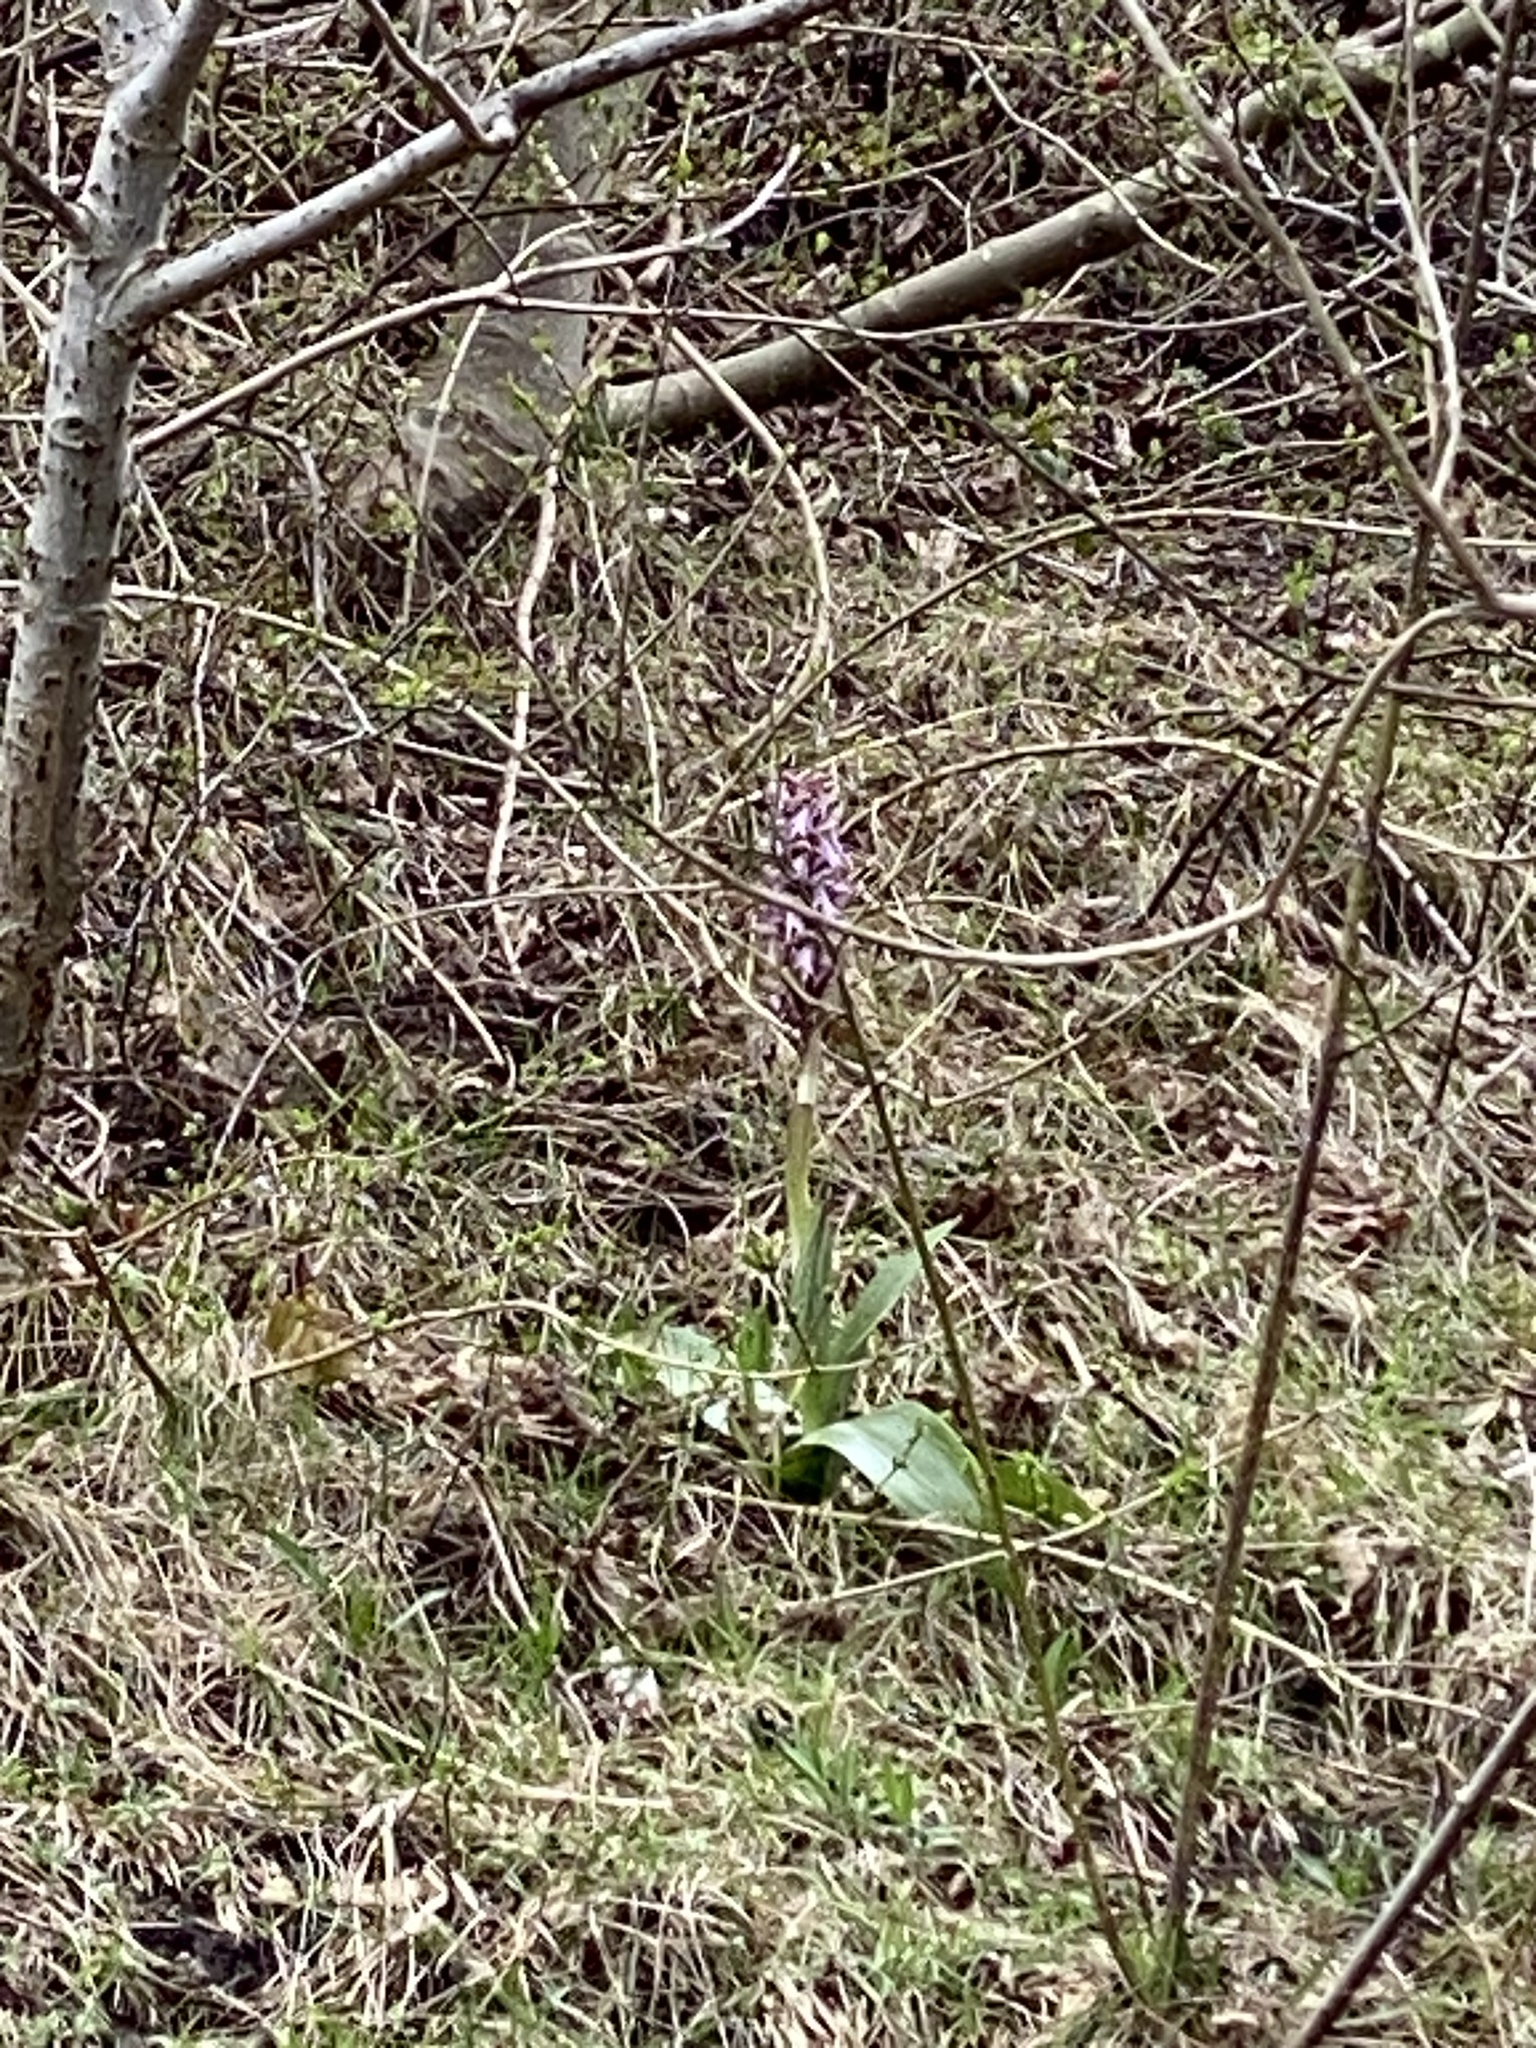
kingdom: Plantae
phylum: Tracheophyta
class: Liliopsida
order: Asparagales
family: Orchidaceae
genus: Himantoglossum
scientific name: Himantoglossum robertianum
